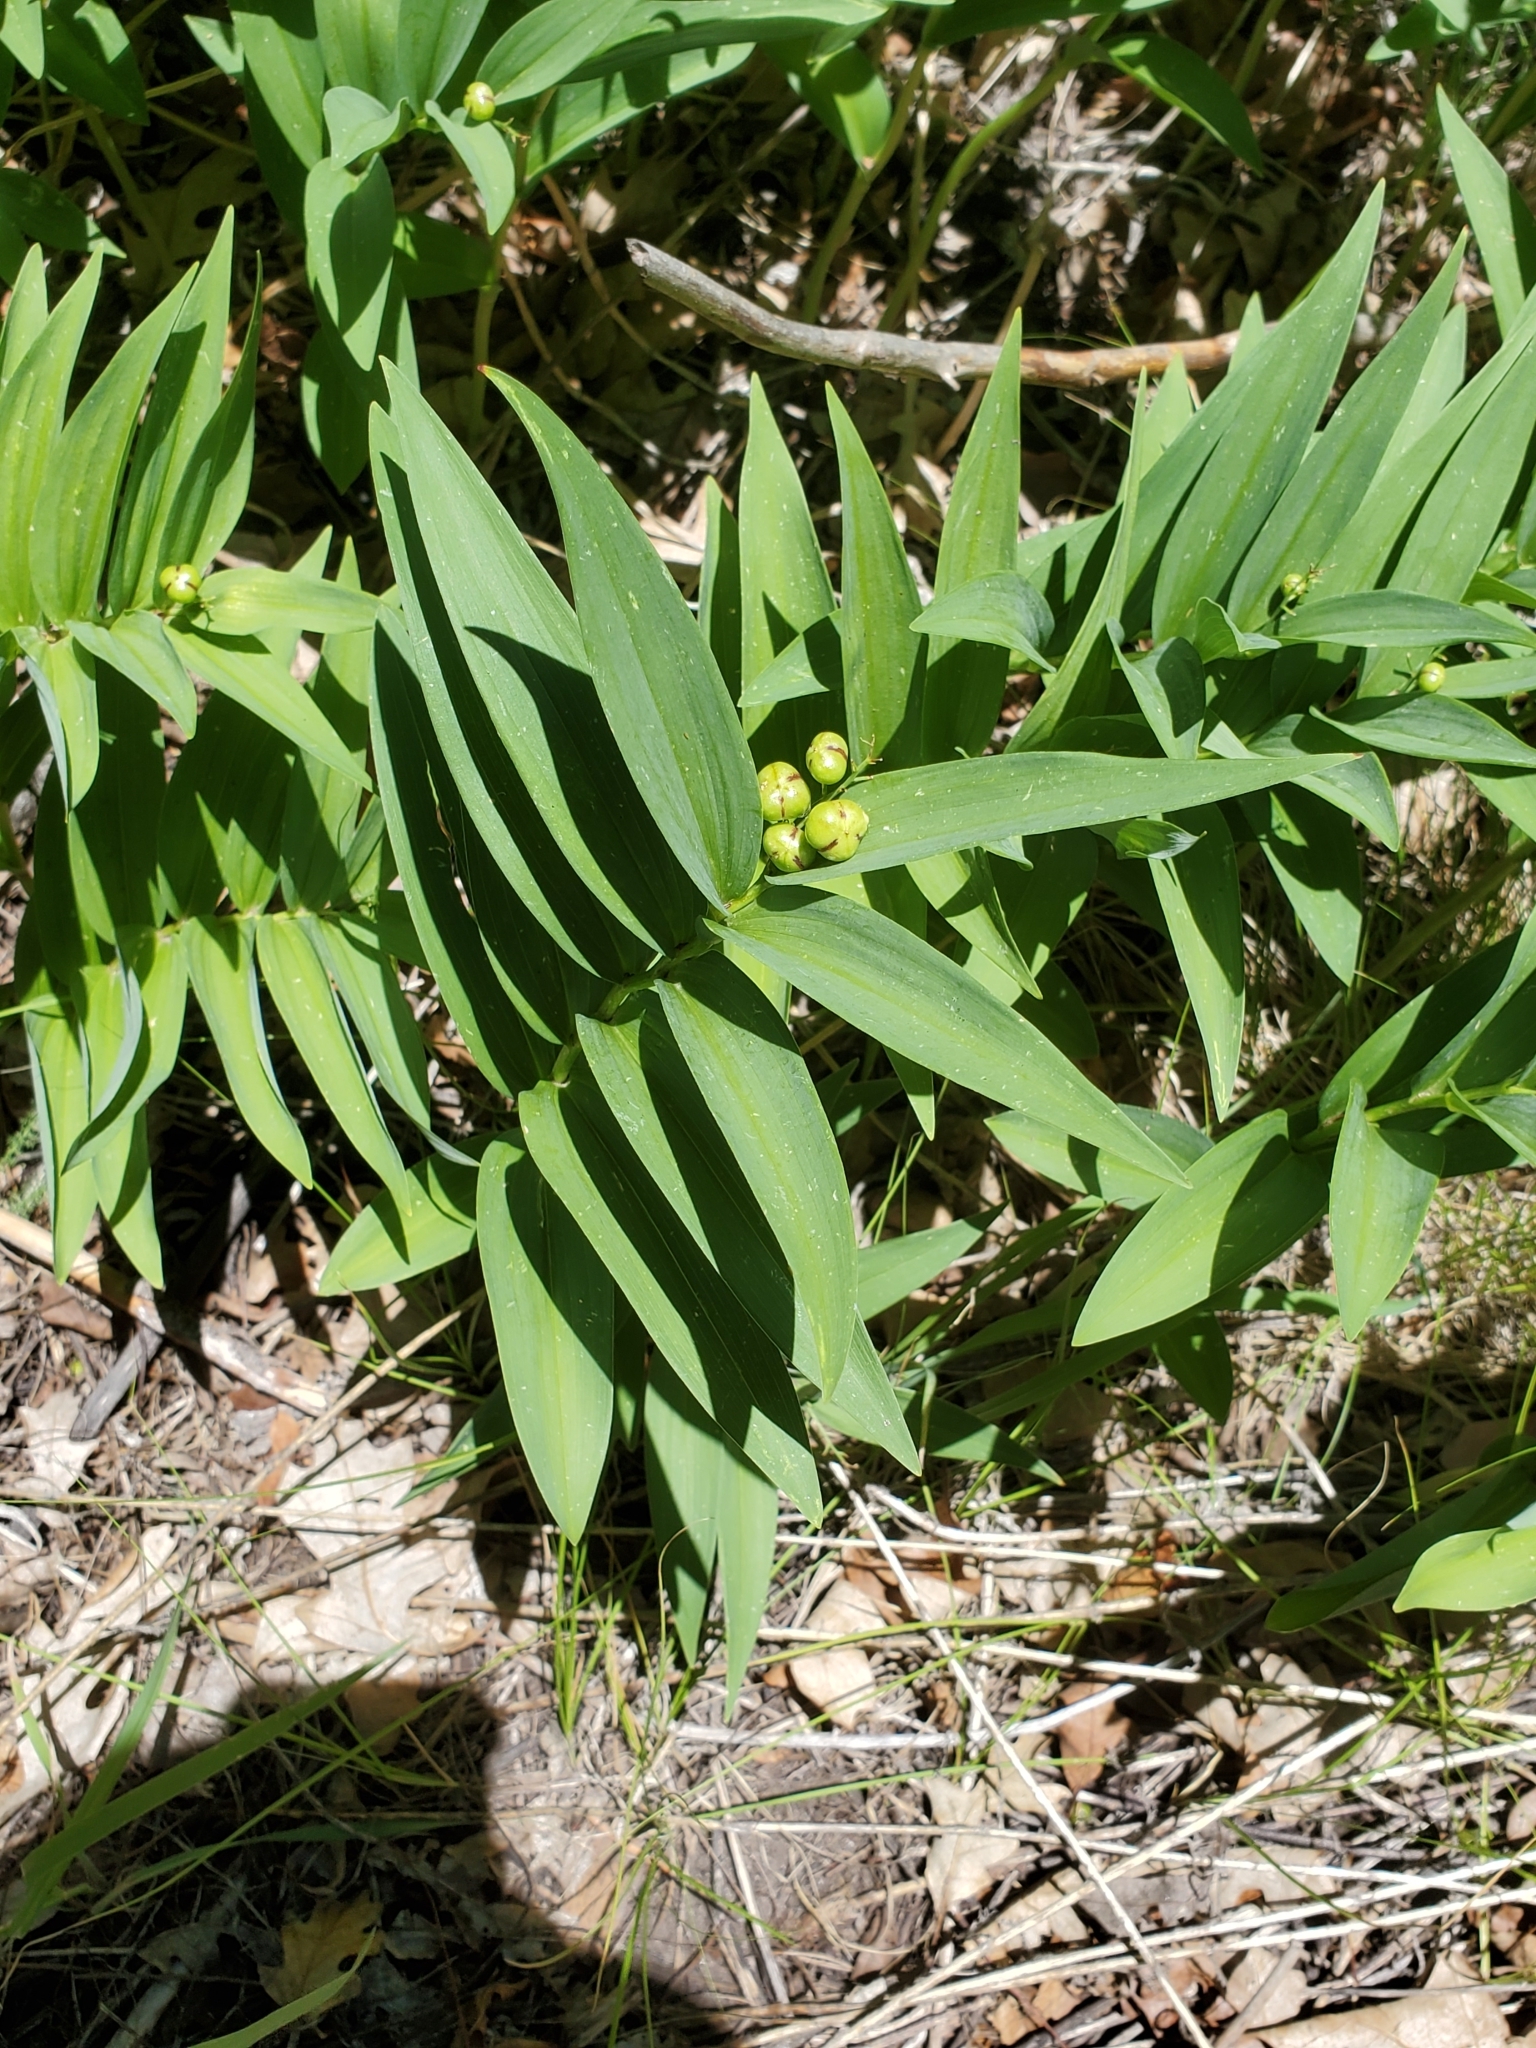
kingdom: Plantae
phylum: Tracheophyta
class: Liliopsida
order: Asparagales
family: Asparagaceae
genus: Maianthemum
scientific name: Maianthemum stellatum
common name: Little false solomon's seal
